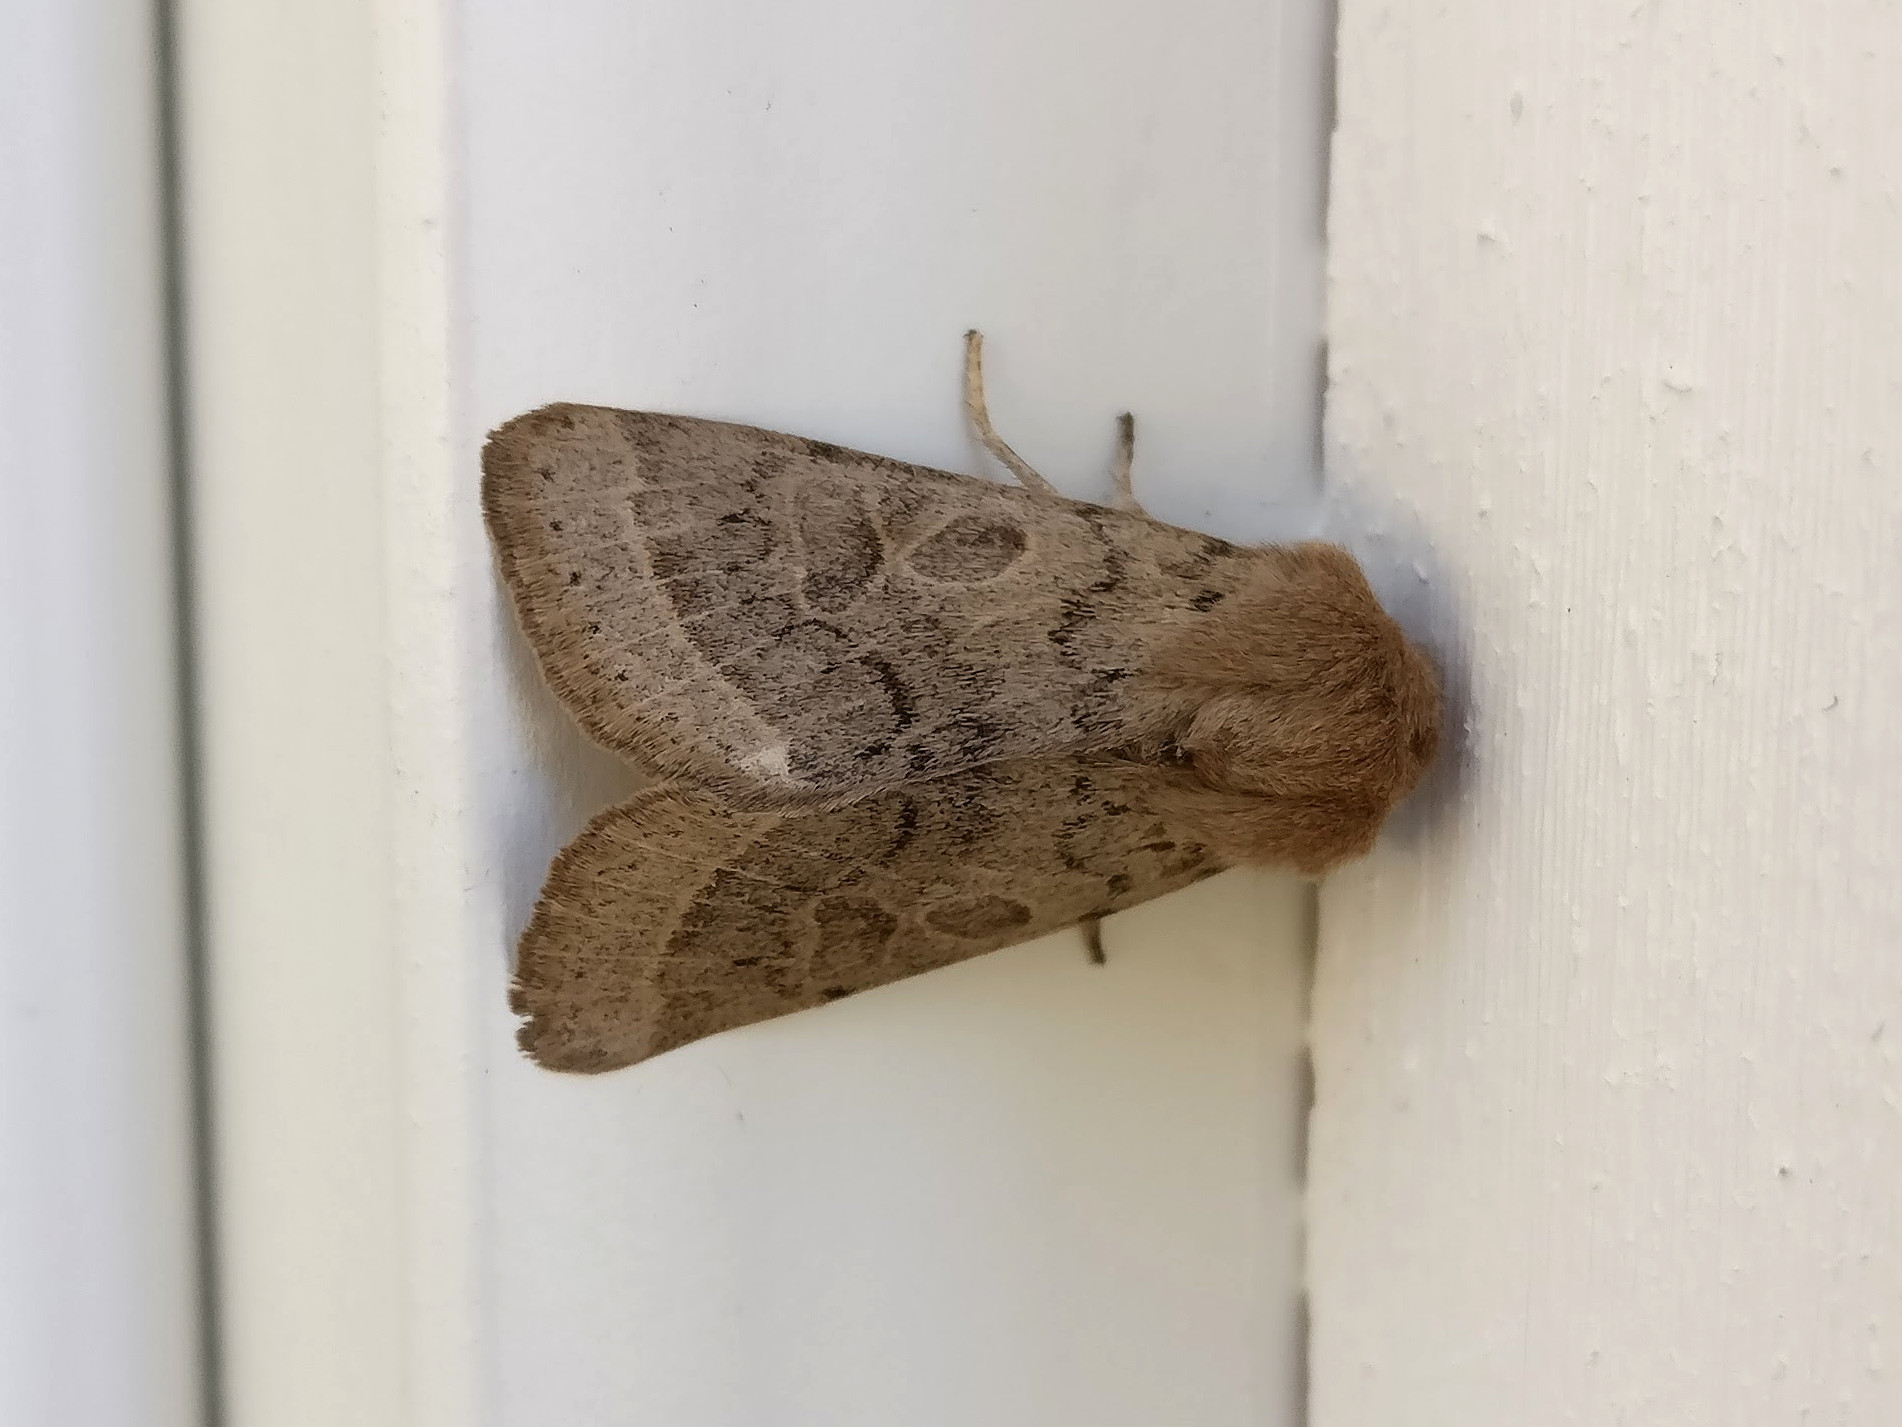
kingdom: Animalia
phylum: Arthropoda
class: Insecta
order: Lepidoptera
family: Noctuidae
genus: Orthosia
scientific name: Orthosia cerasi
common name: Common quaker
